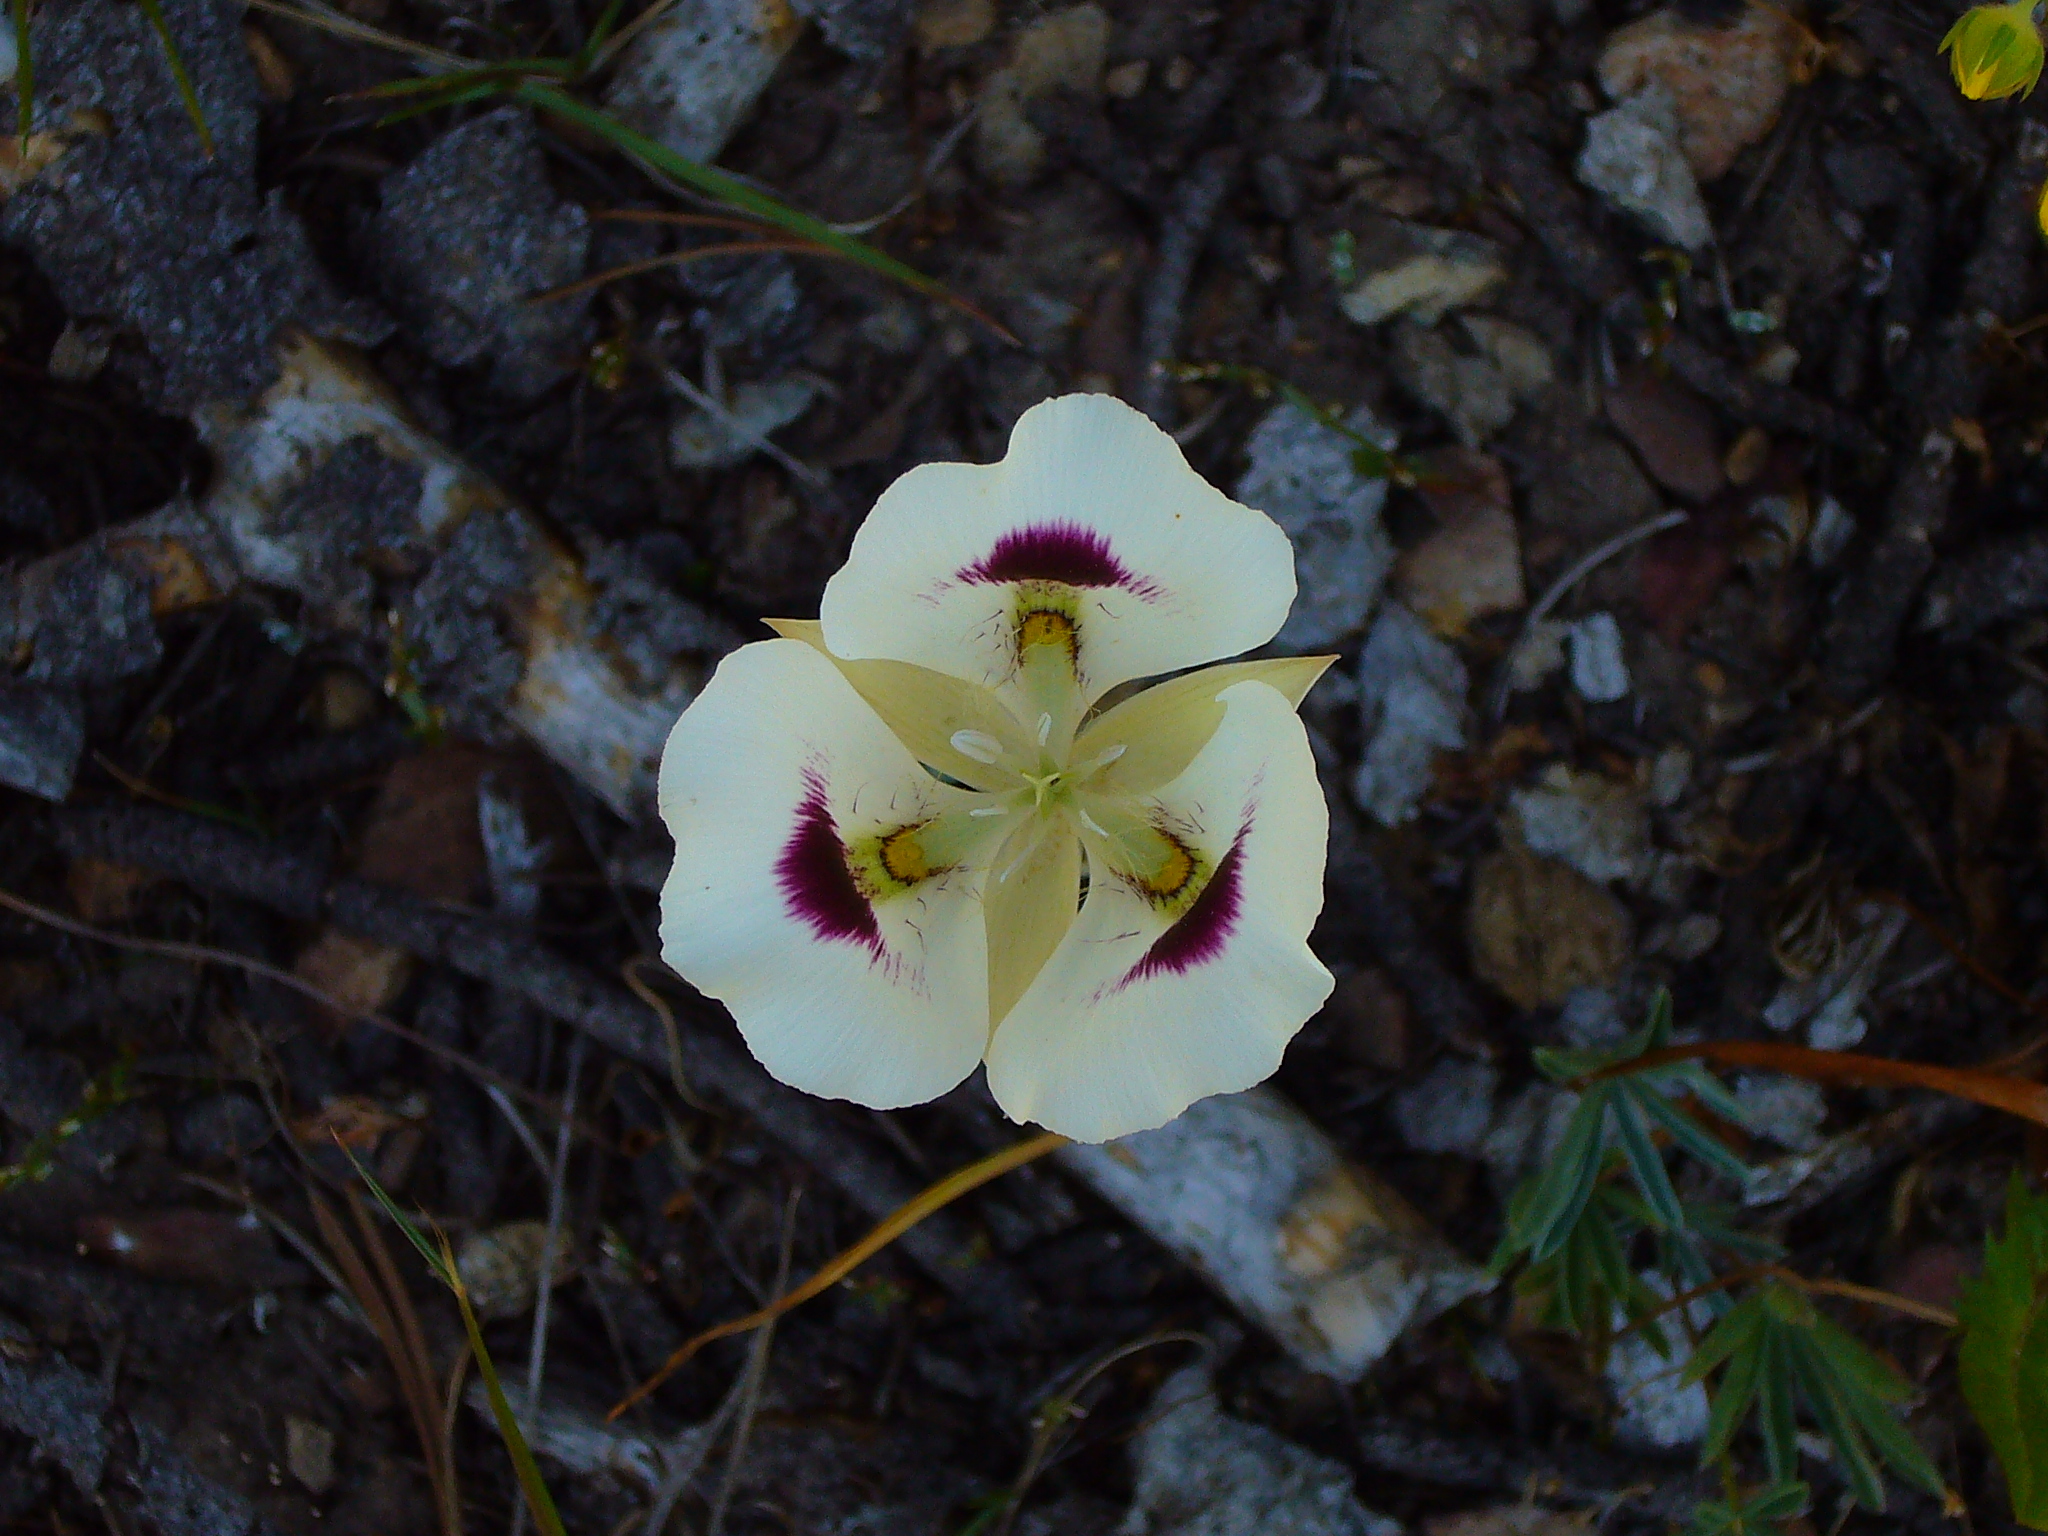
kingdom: Plantae
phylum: Tracheophyta
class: Liliopsida
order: Liliales
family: Liliaceae
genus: Calochortus
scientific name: Calochortus eurycarpus
